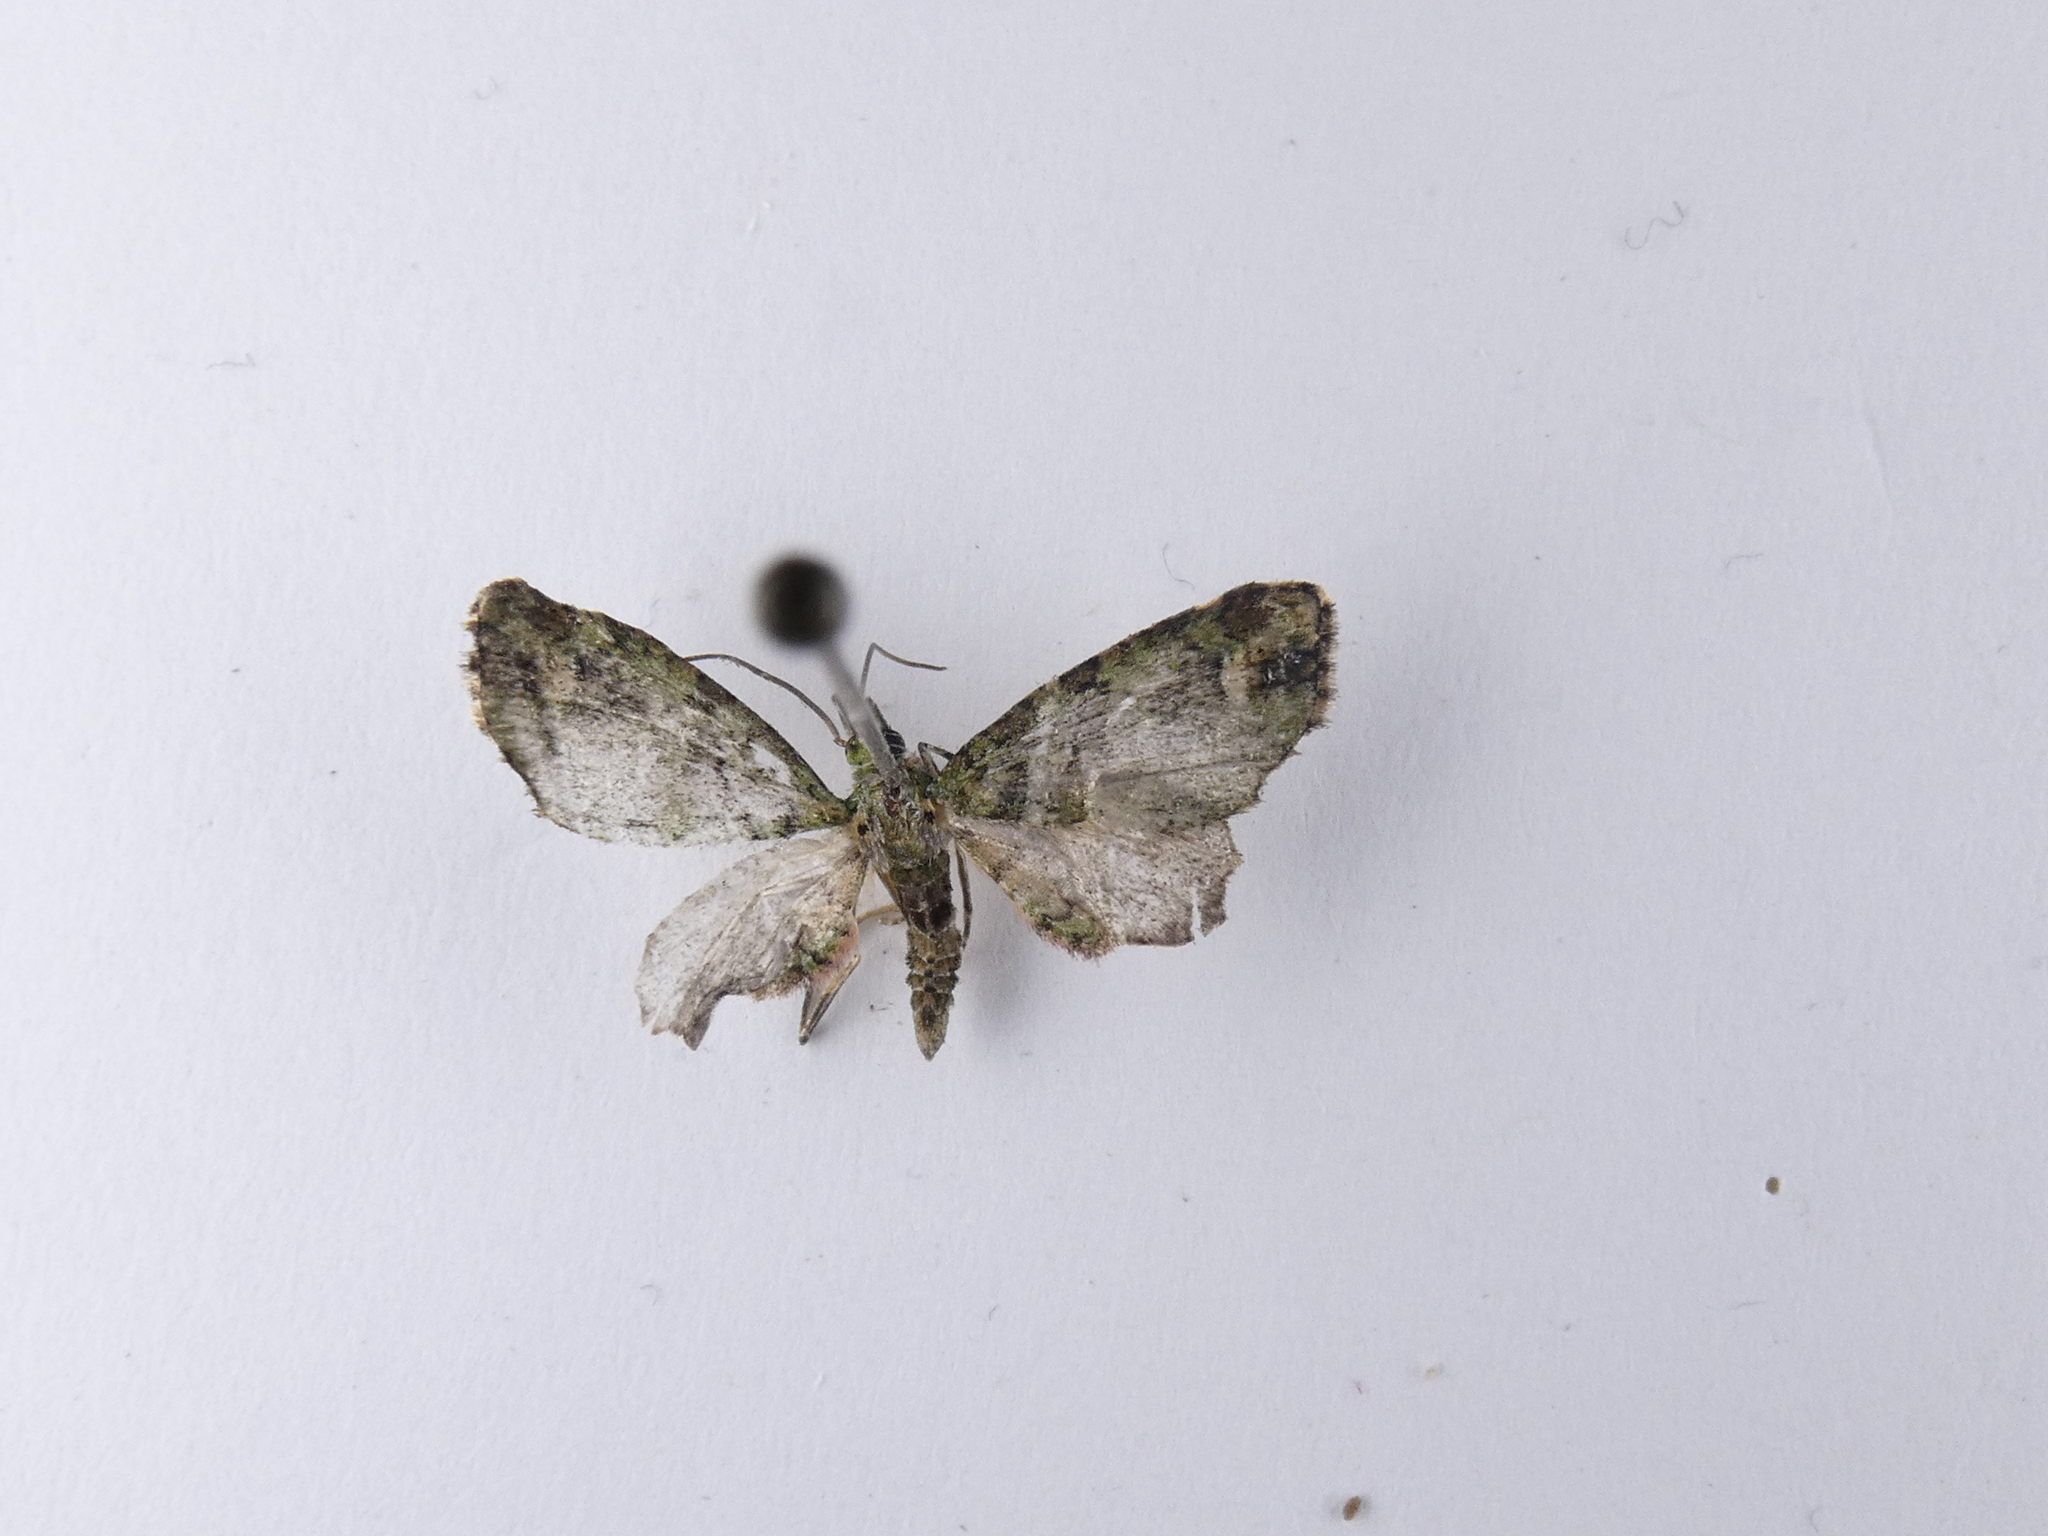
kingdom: Animalia
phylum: Arthropoda
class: Insecta
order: Lepidoptera
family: Geometridae
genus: Idaea
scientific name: Idaea mutanda
